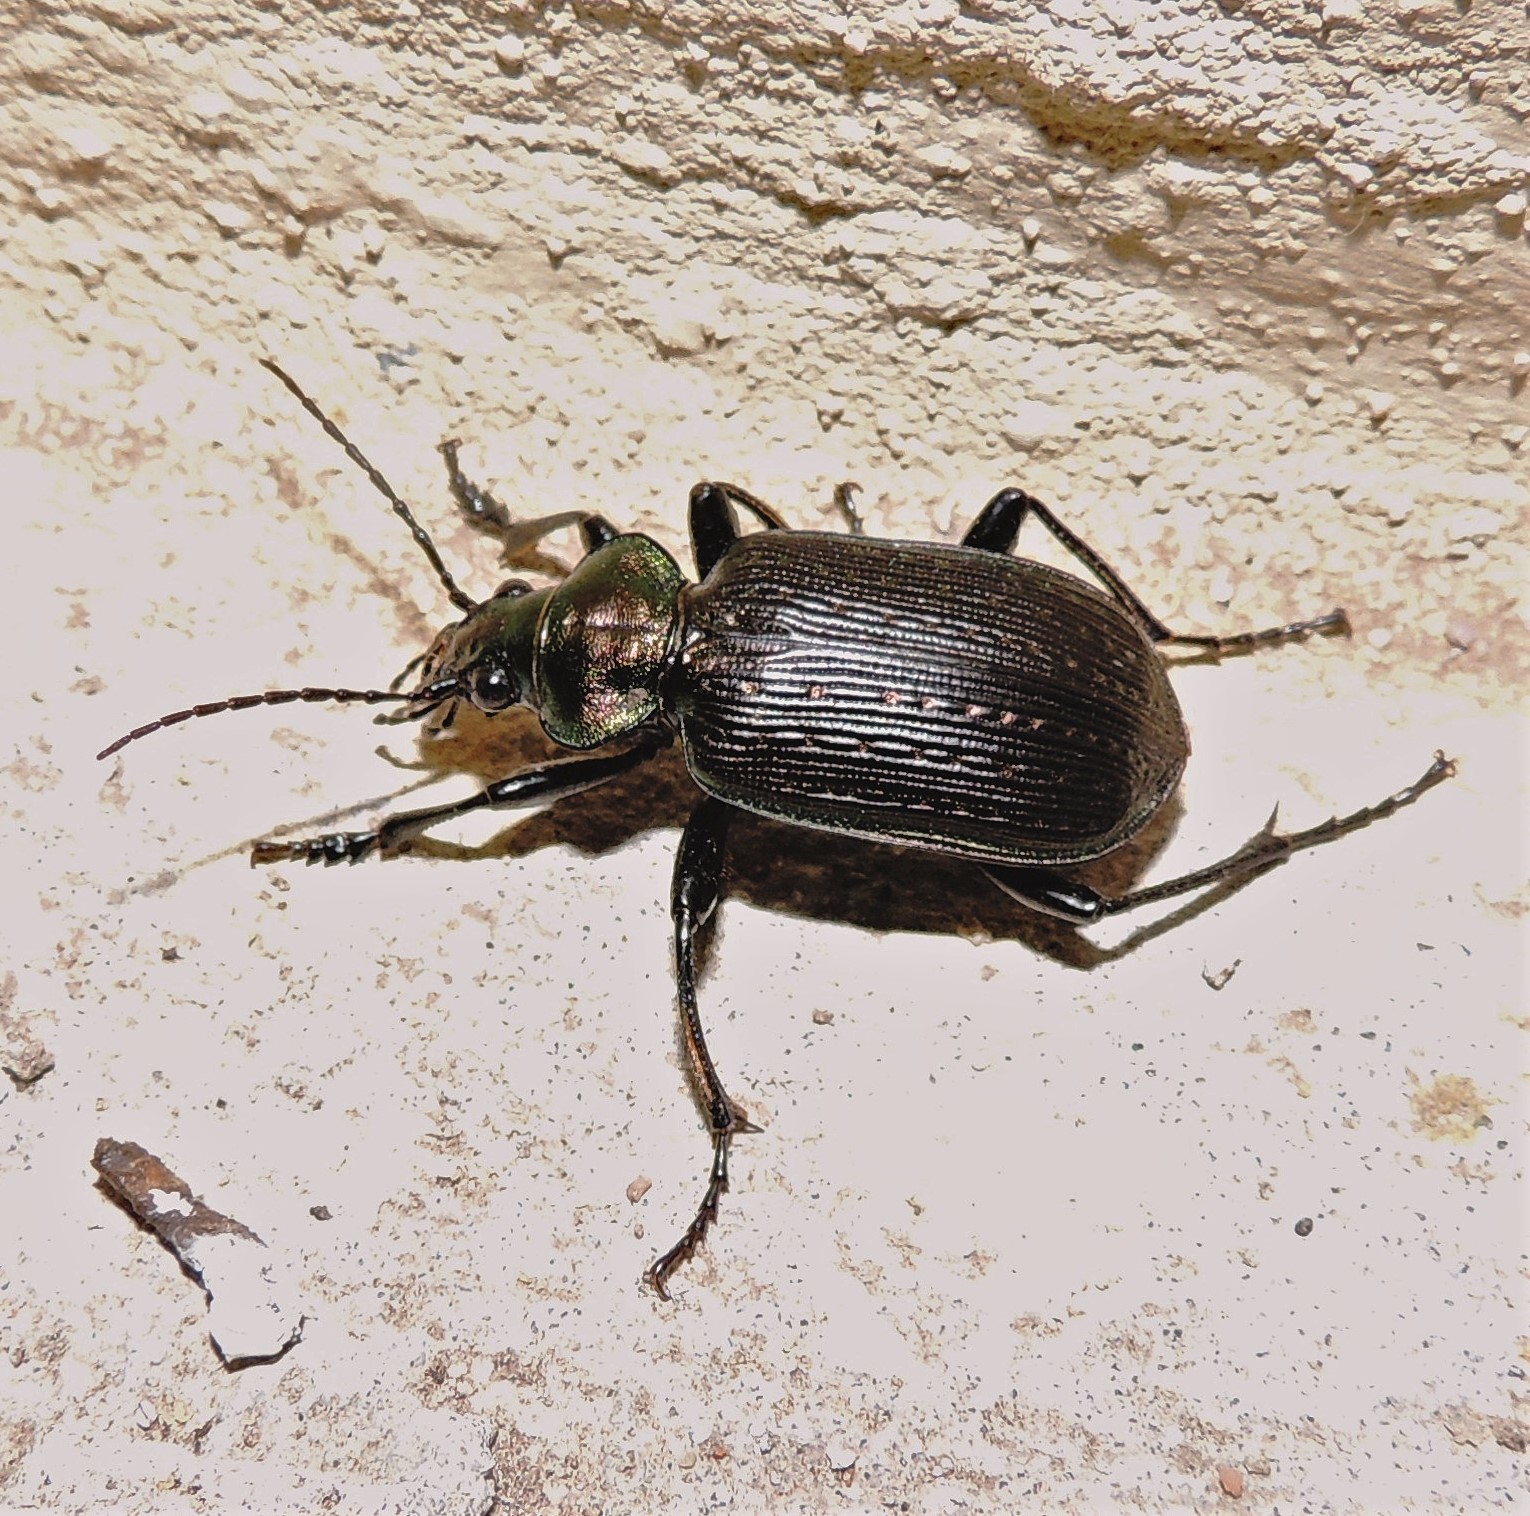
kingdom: Animalia
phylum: Arthropoda
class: Insecta
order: Coleoptera
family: Carabidae
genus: Calosoma
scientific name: Calosoma argentinense
